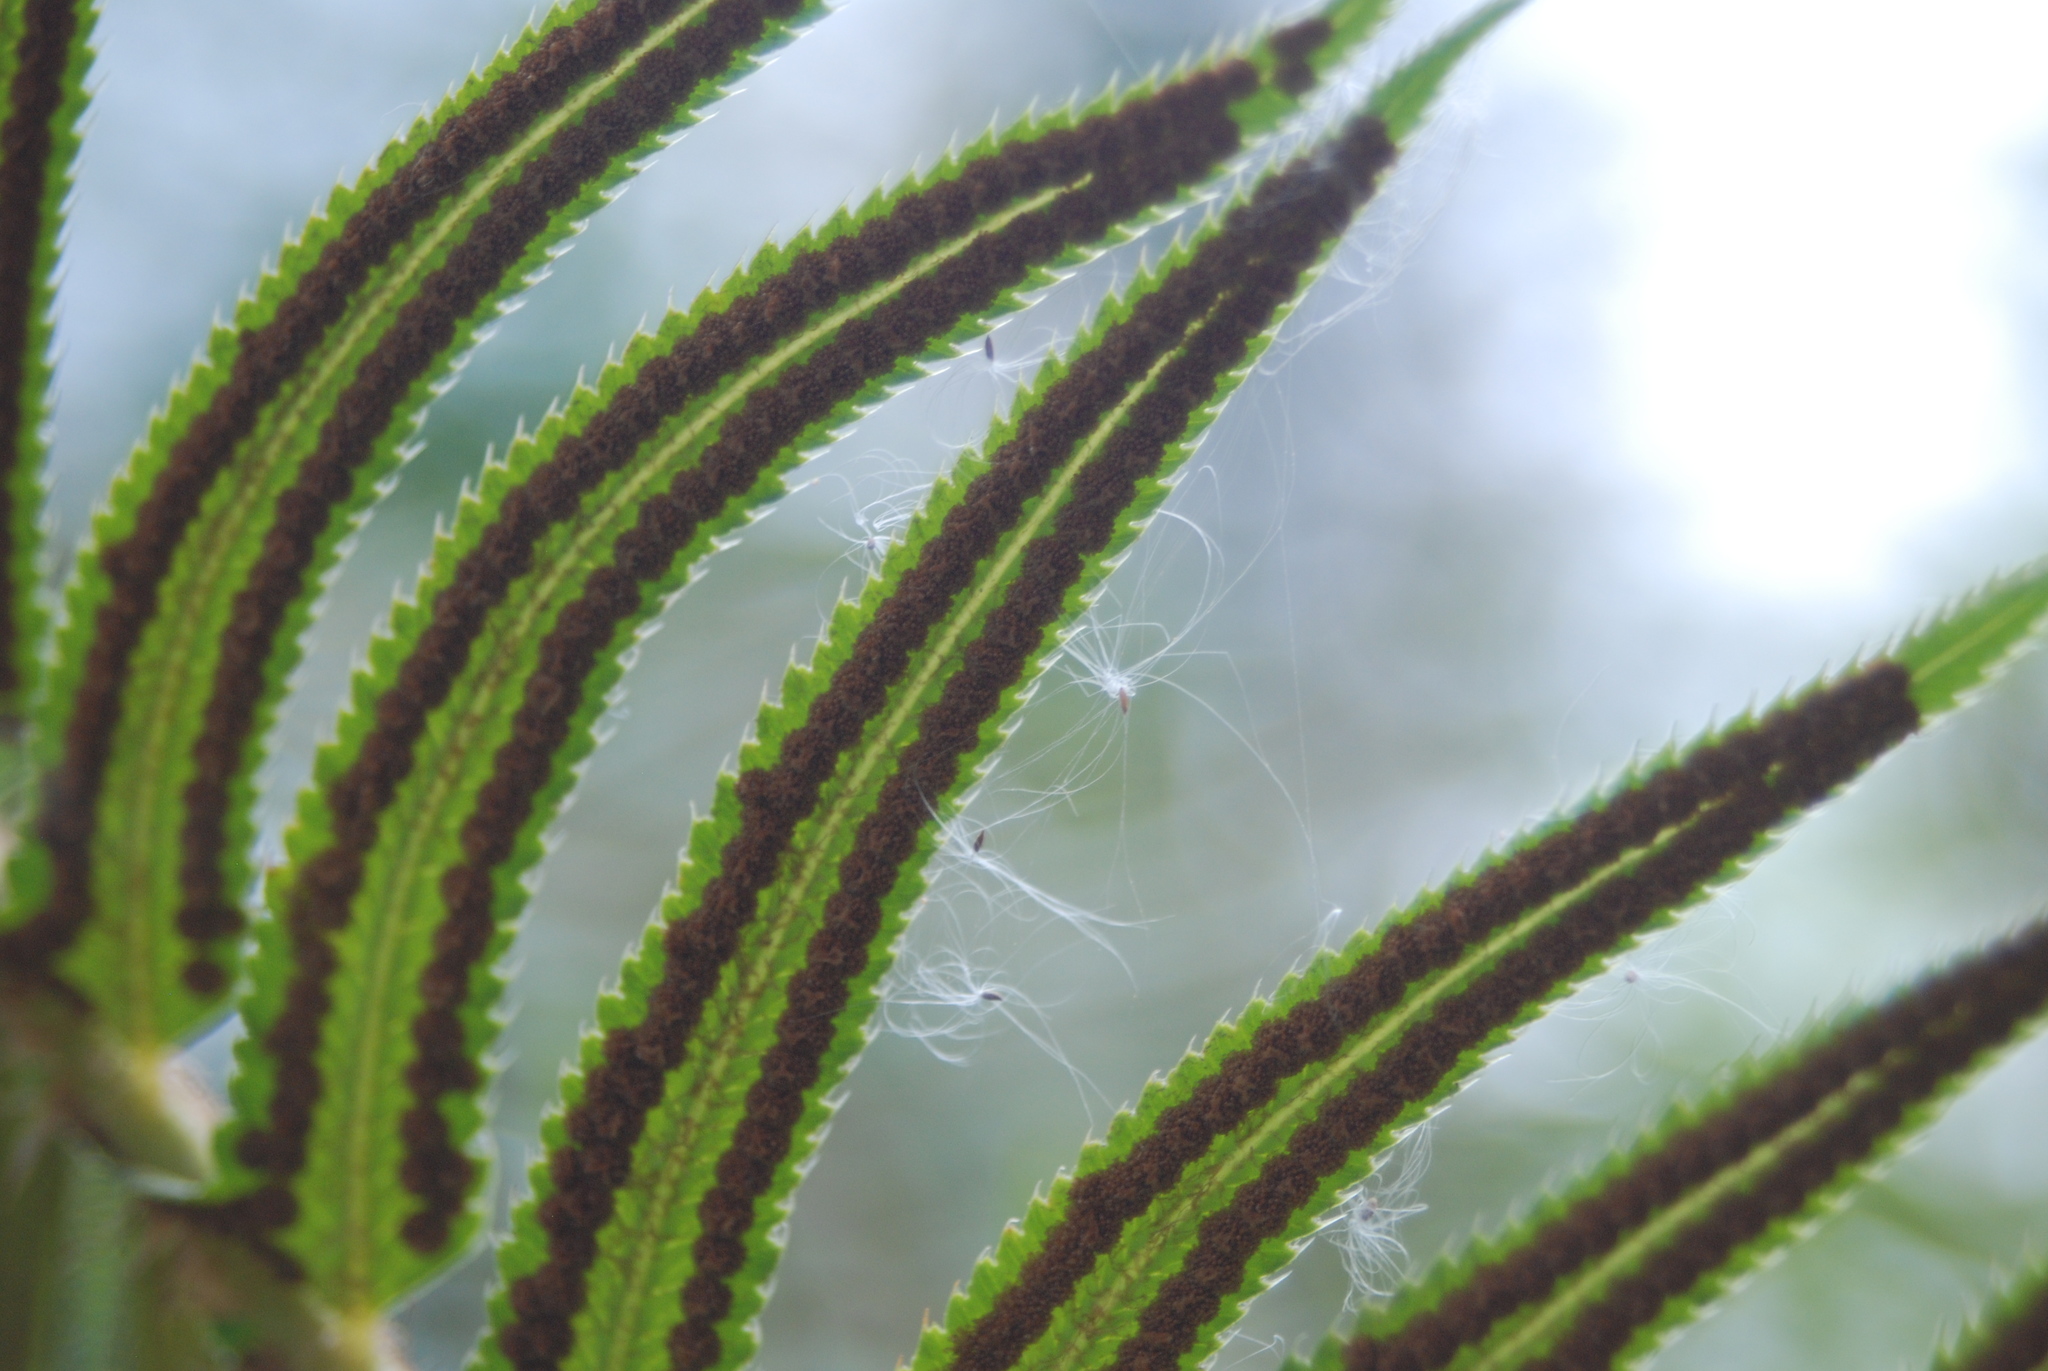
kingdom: Plantae
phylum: Tracheophyta
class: Polypodiopsida
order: Polypodiales
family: Dryopteridaceae
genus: Polystichum
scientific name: Polystichum munitum
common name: Western sword-fern
